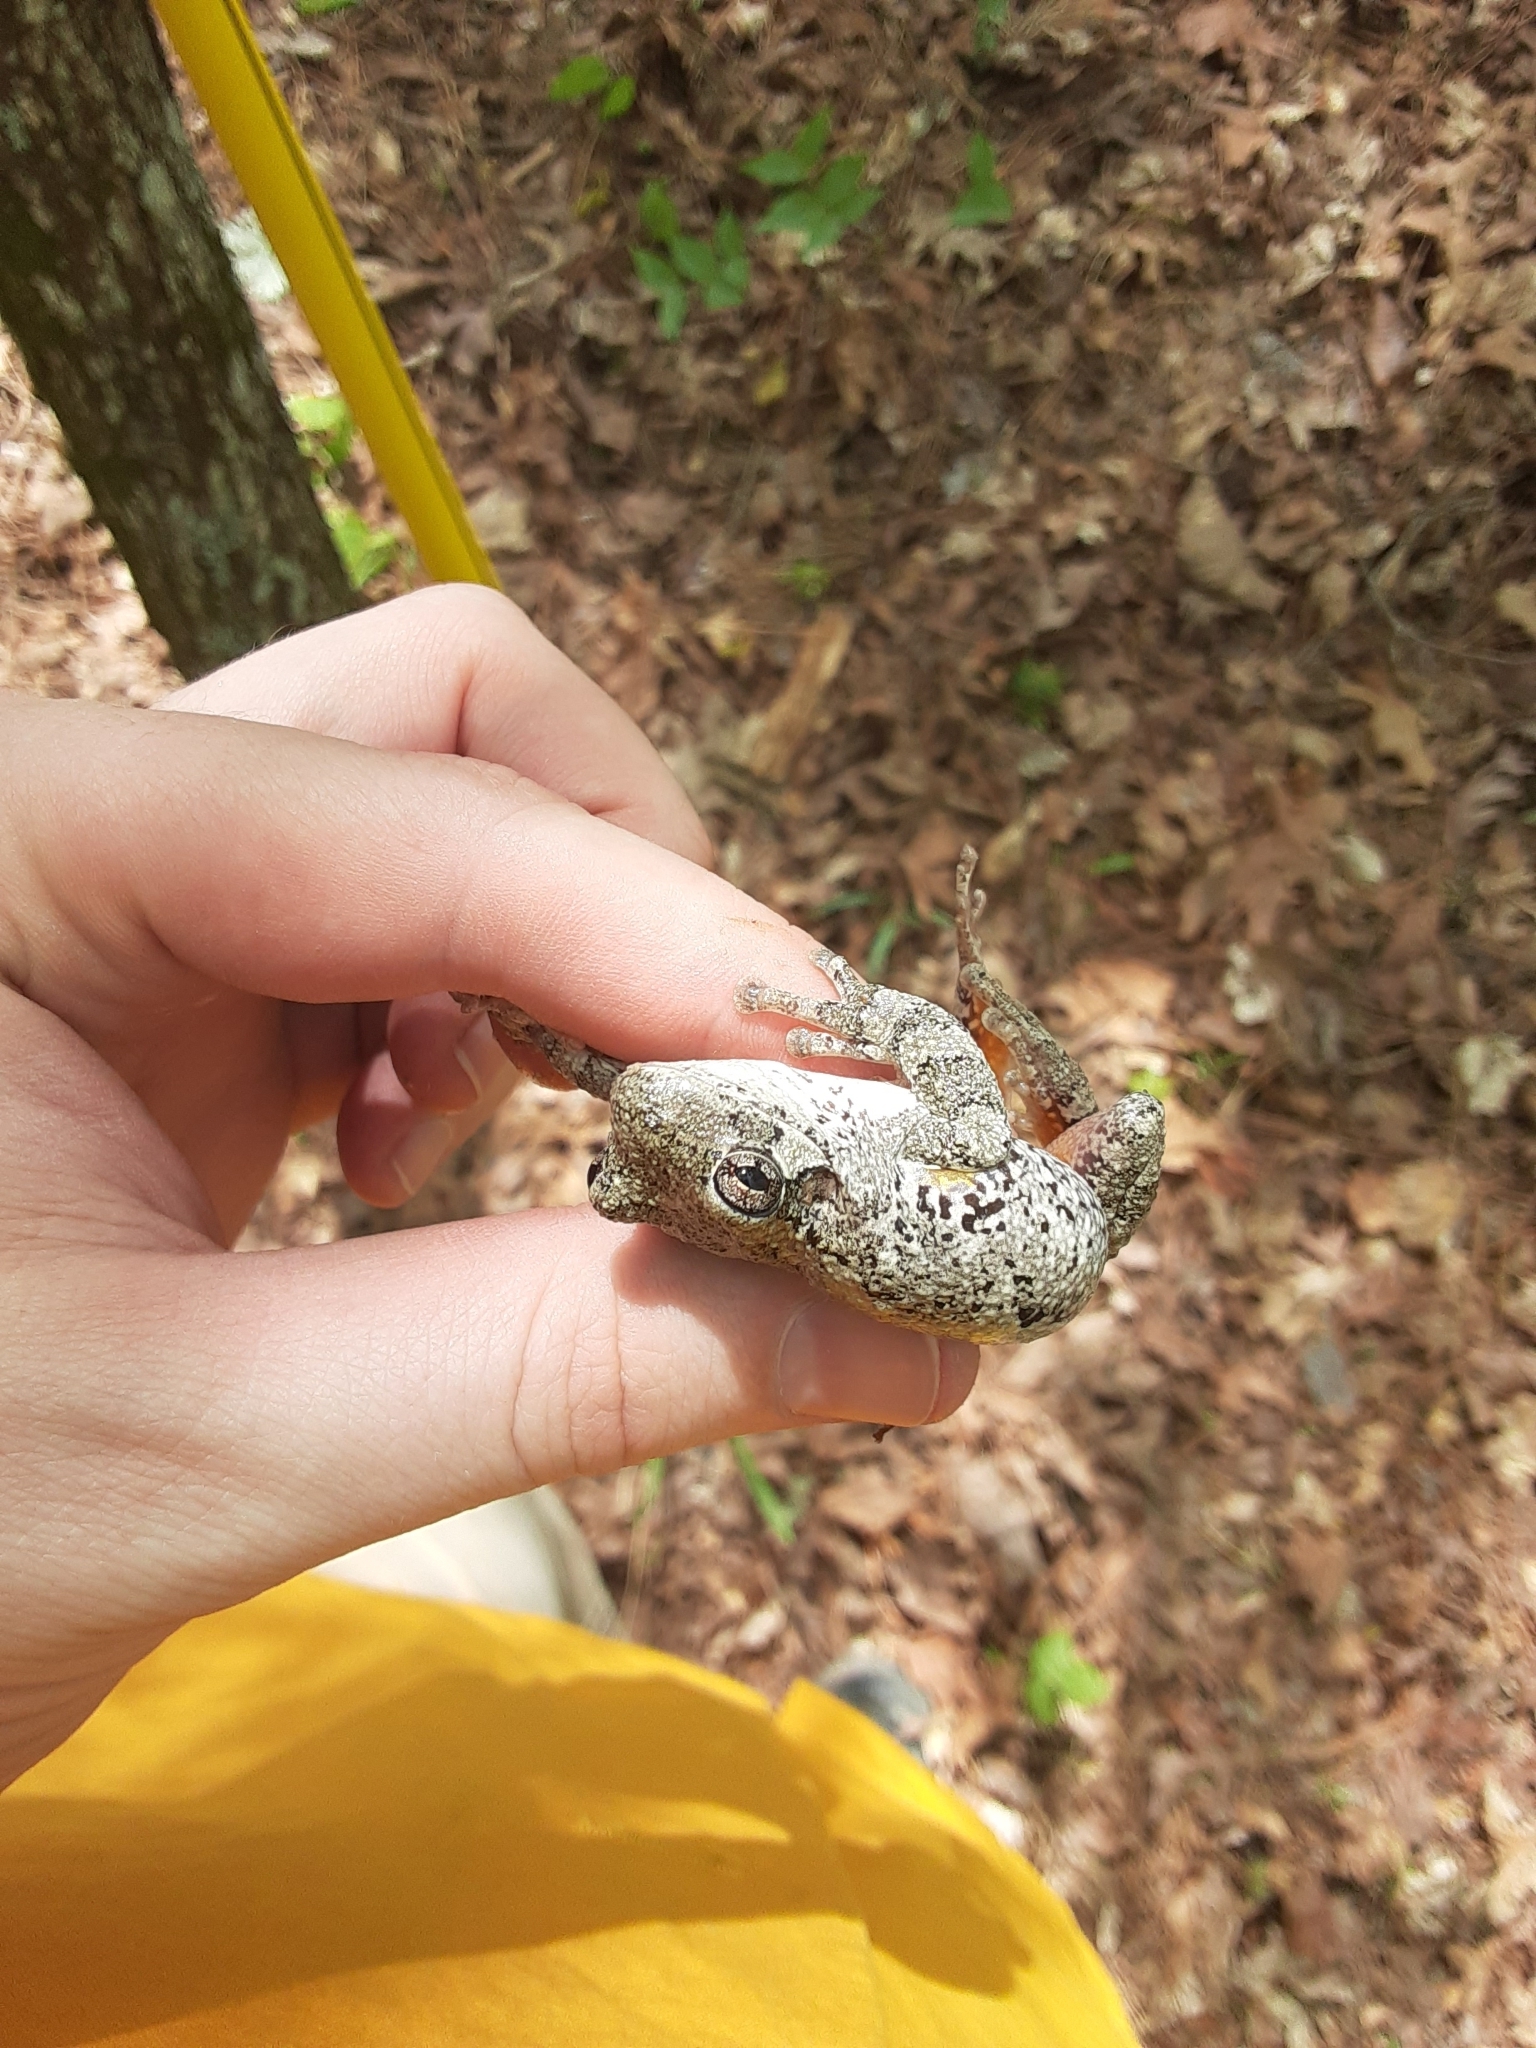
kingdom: Animalia
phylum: Chordata
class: Amphibia
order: Anura
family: Hylidae
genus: Hyla
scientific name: Hyla
